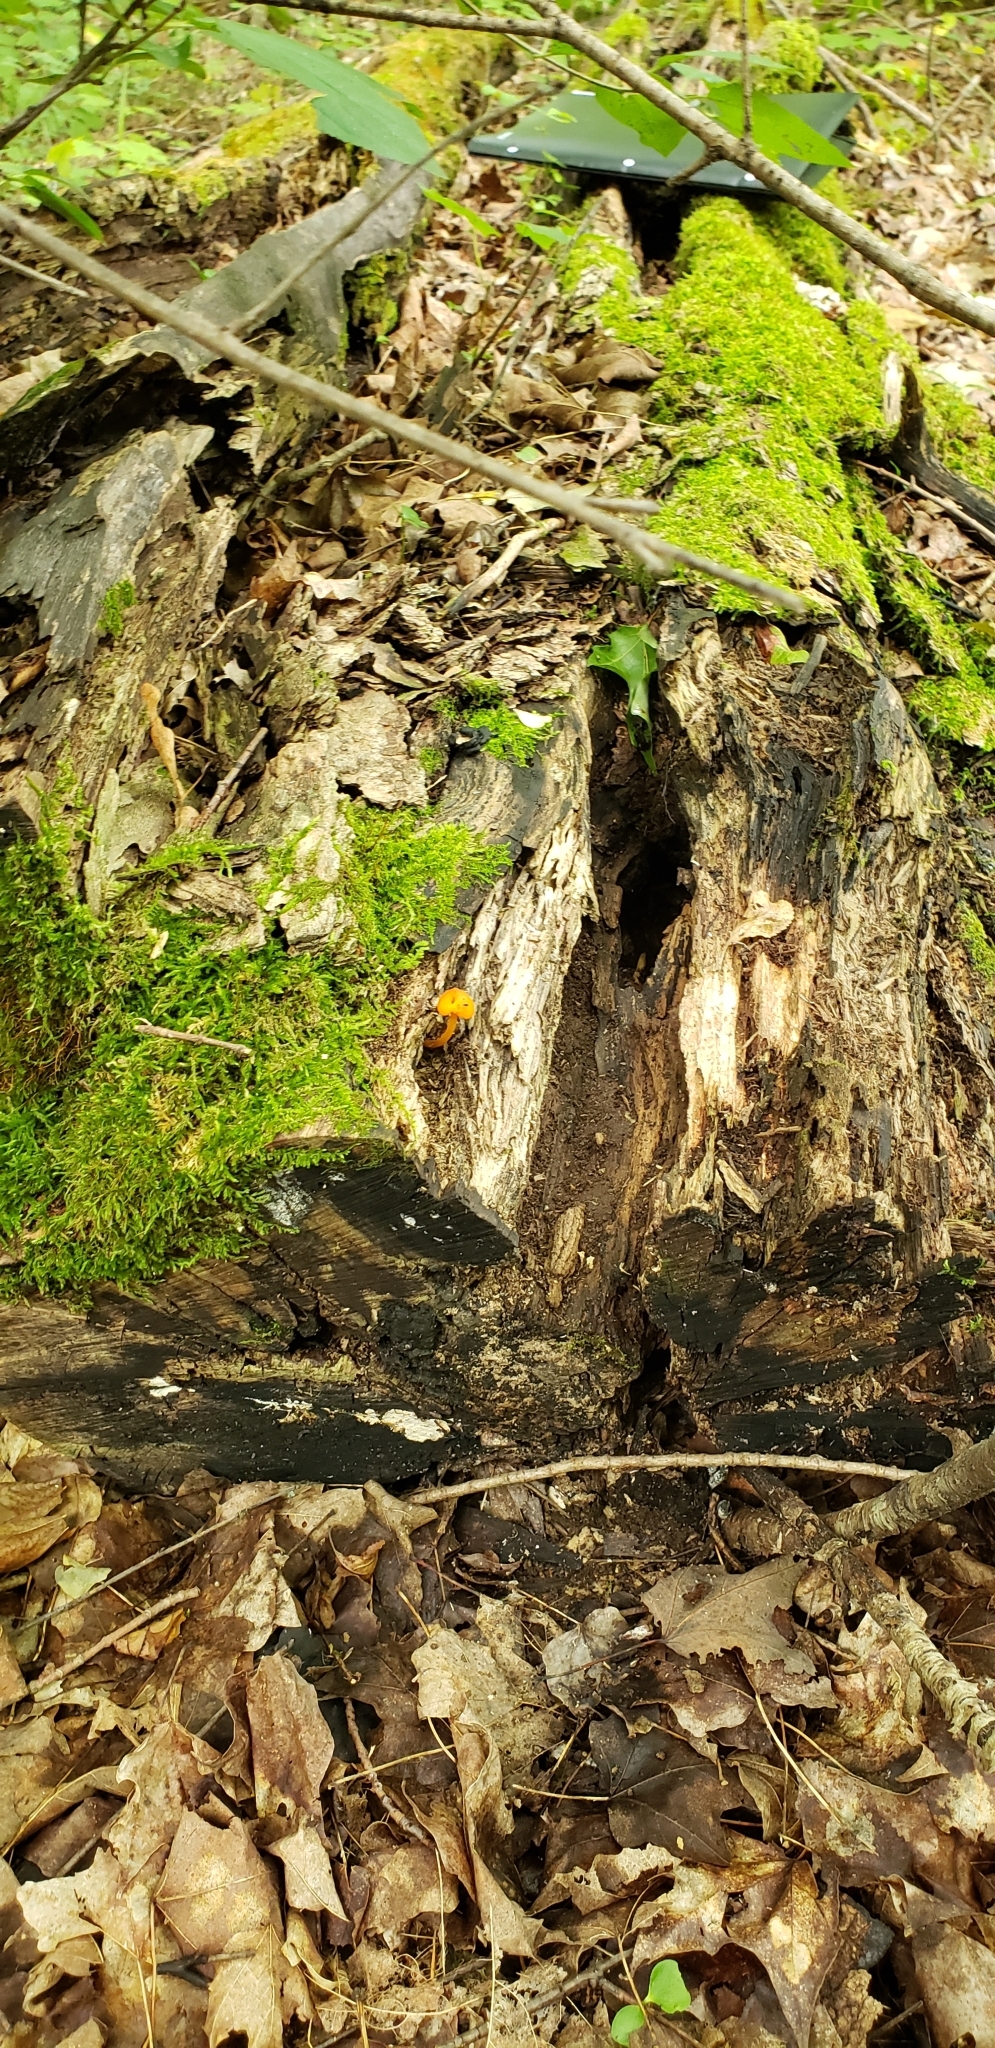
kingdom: Fungi
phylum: Basidiomycota
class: Agaricomycetes
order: Agaricales
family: Mycenaceae
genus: Mycena
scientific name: Mycena leaiana
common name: Orange mycena
